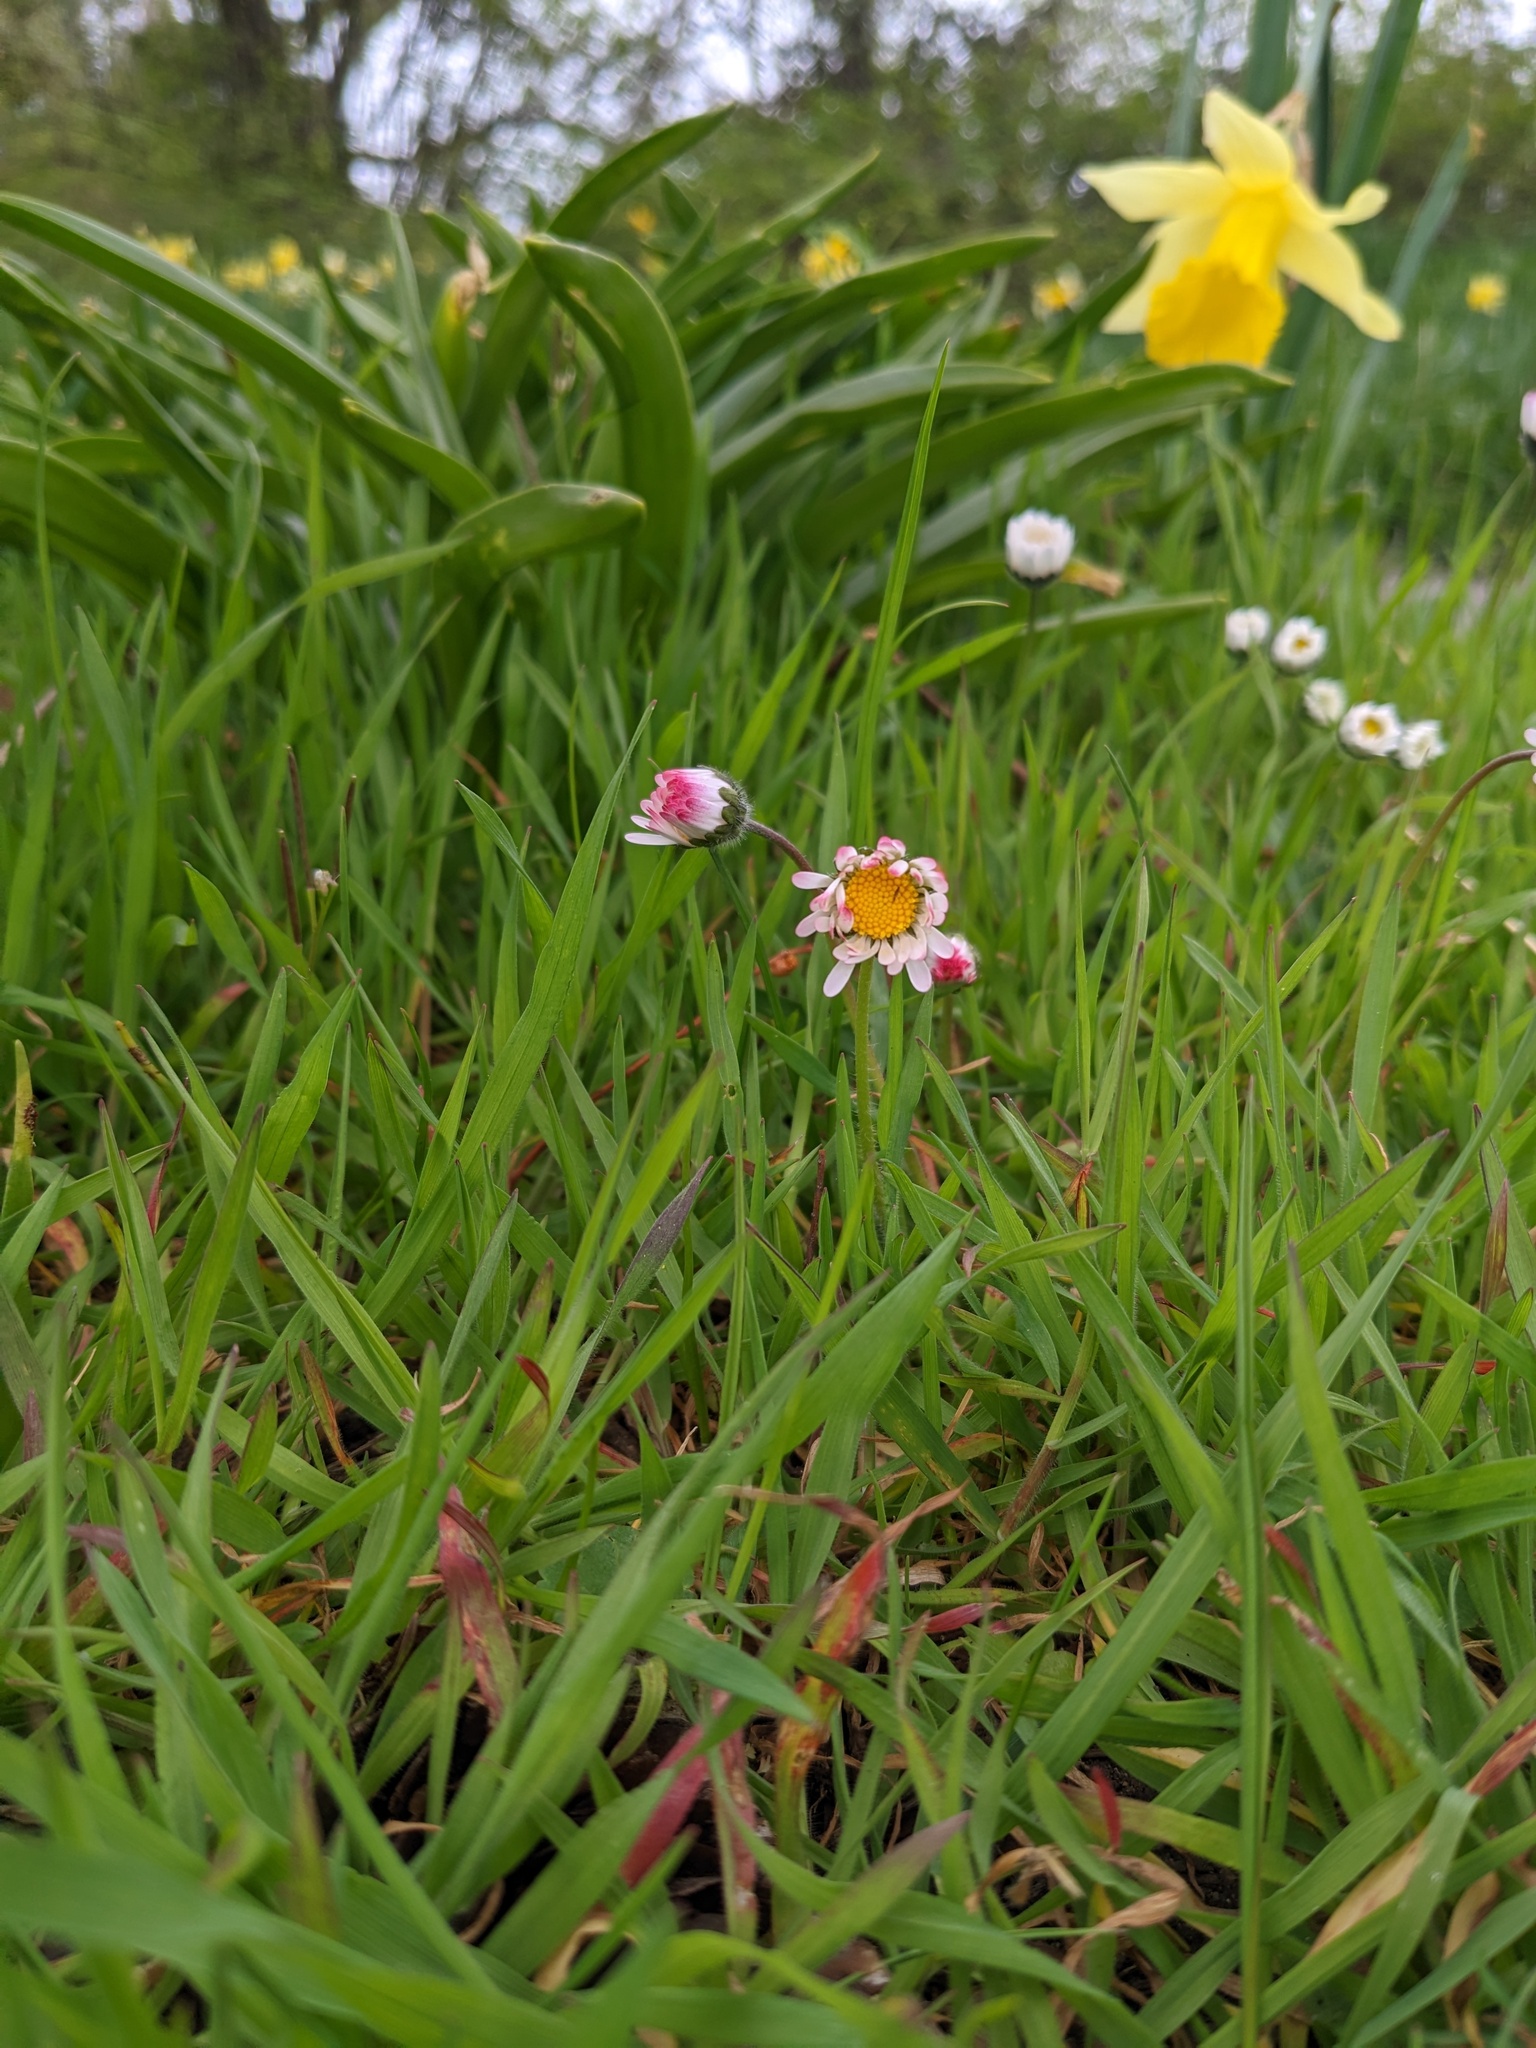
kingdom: Plantae
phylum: Tracheophyta
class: Magnoliopsida
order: Asterales
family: Asteraceae
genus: Bellis
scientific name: Bellis perennis
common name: Lawndaisy
